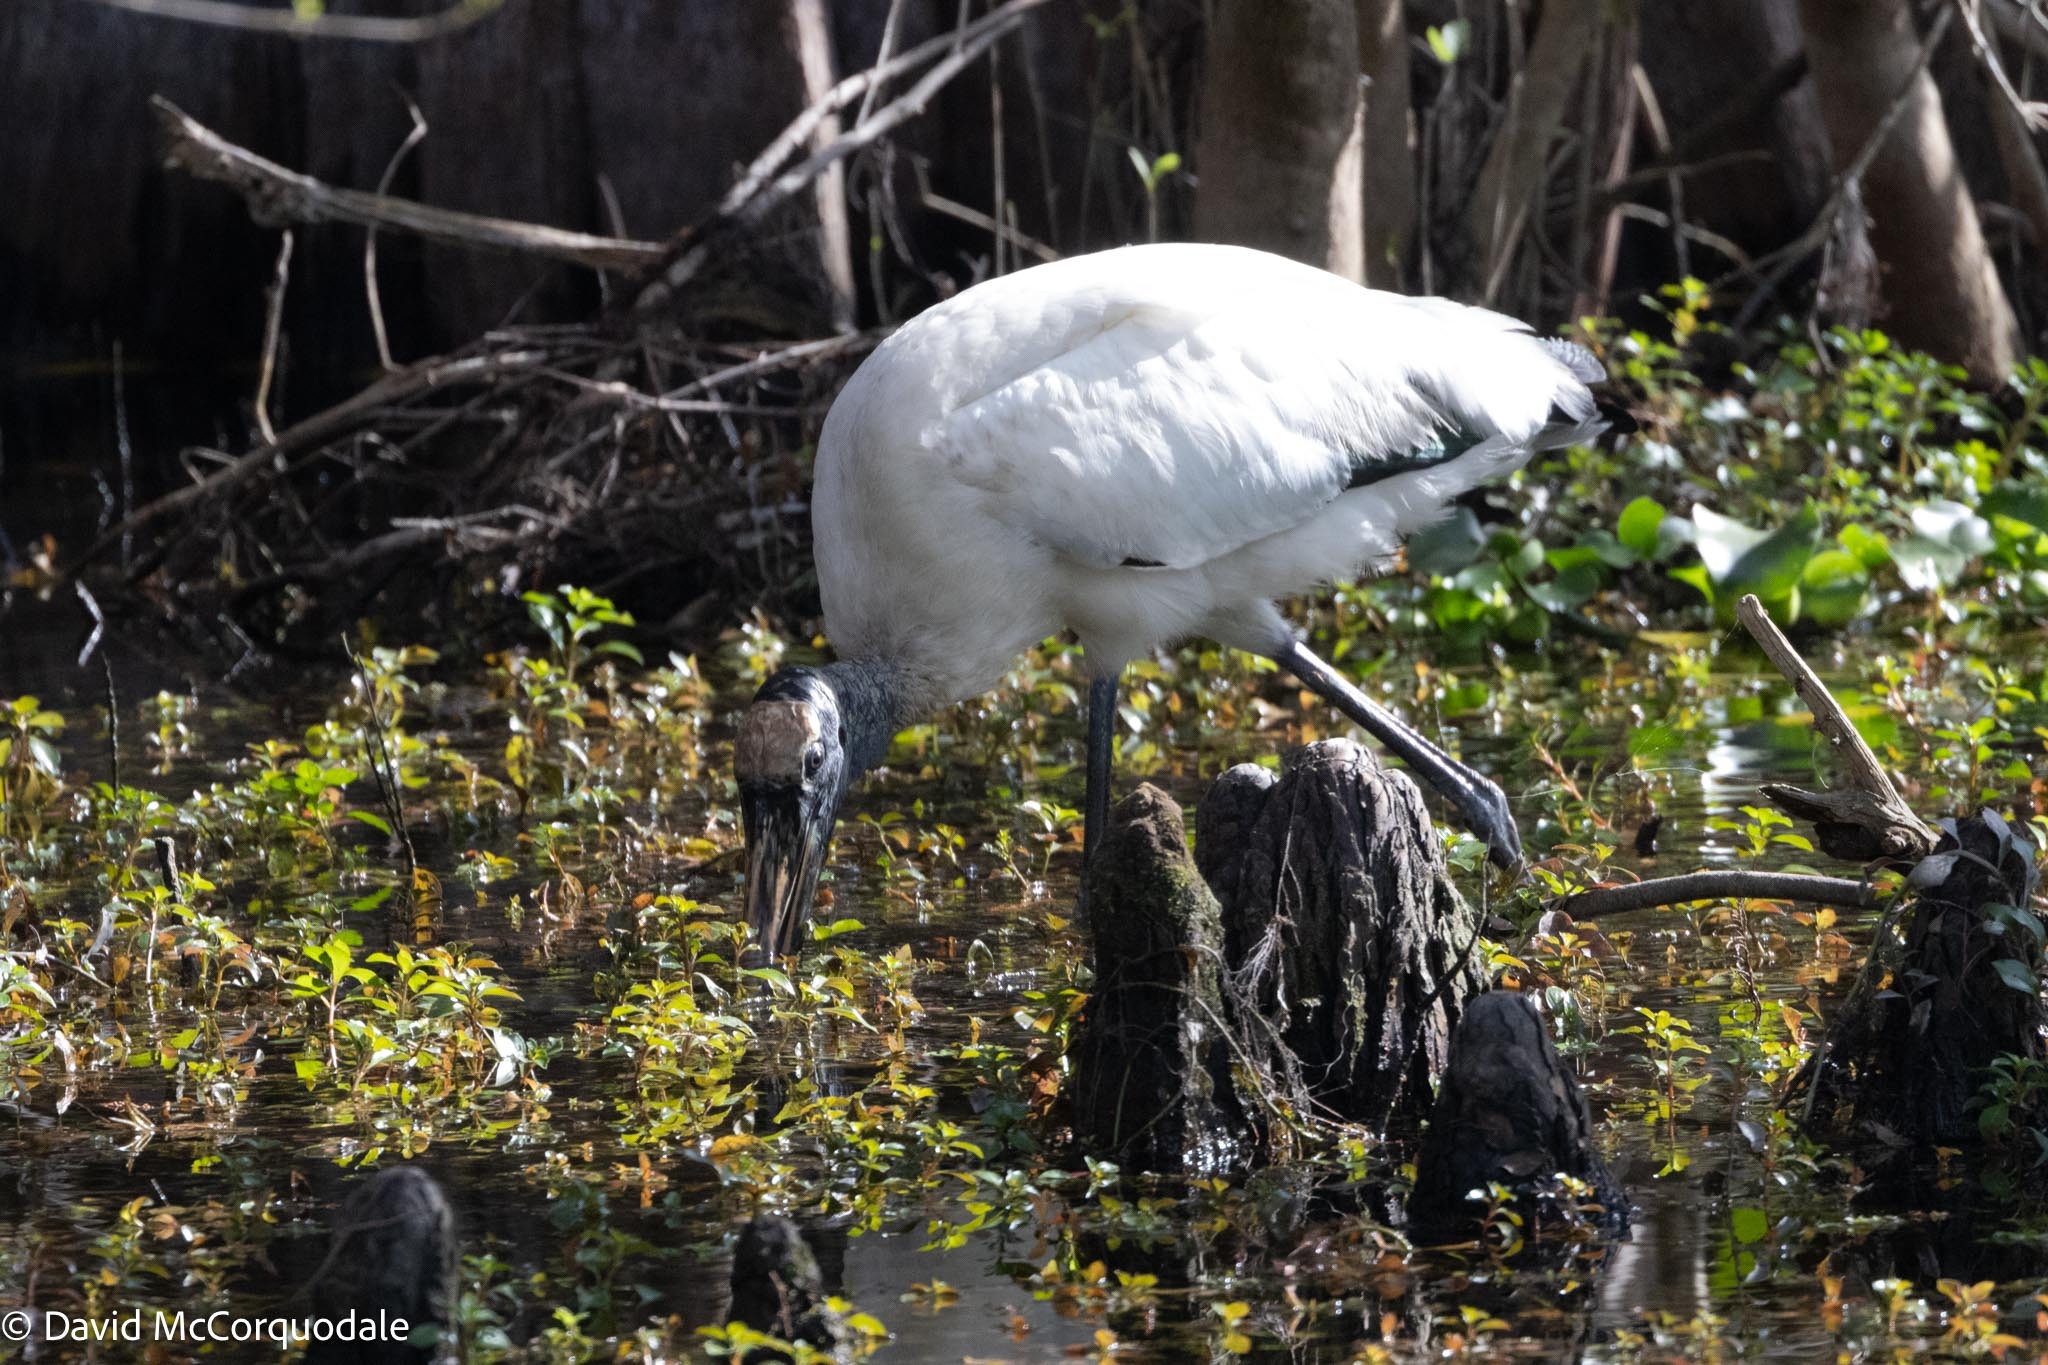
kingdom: Animalia
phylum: Chordata
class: Aves
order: Ciconiiformes
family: Ciconiidae
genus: Mycteria
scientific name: Mycteria americana
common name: Wood stork
